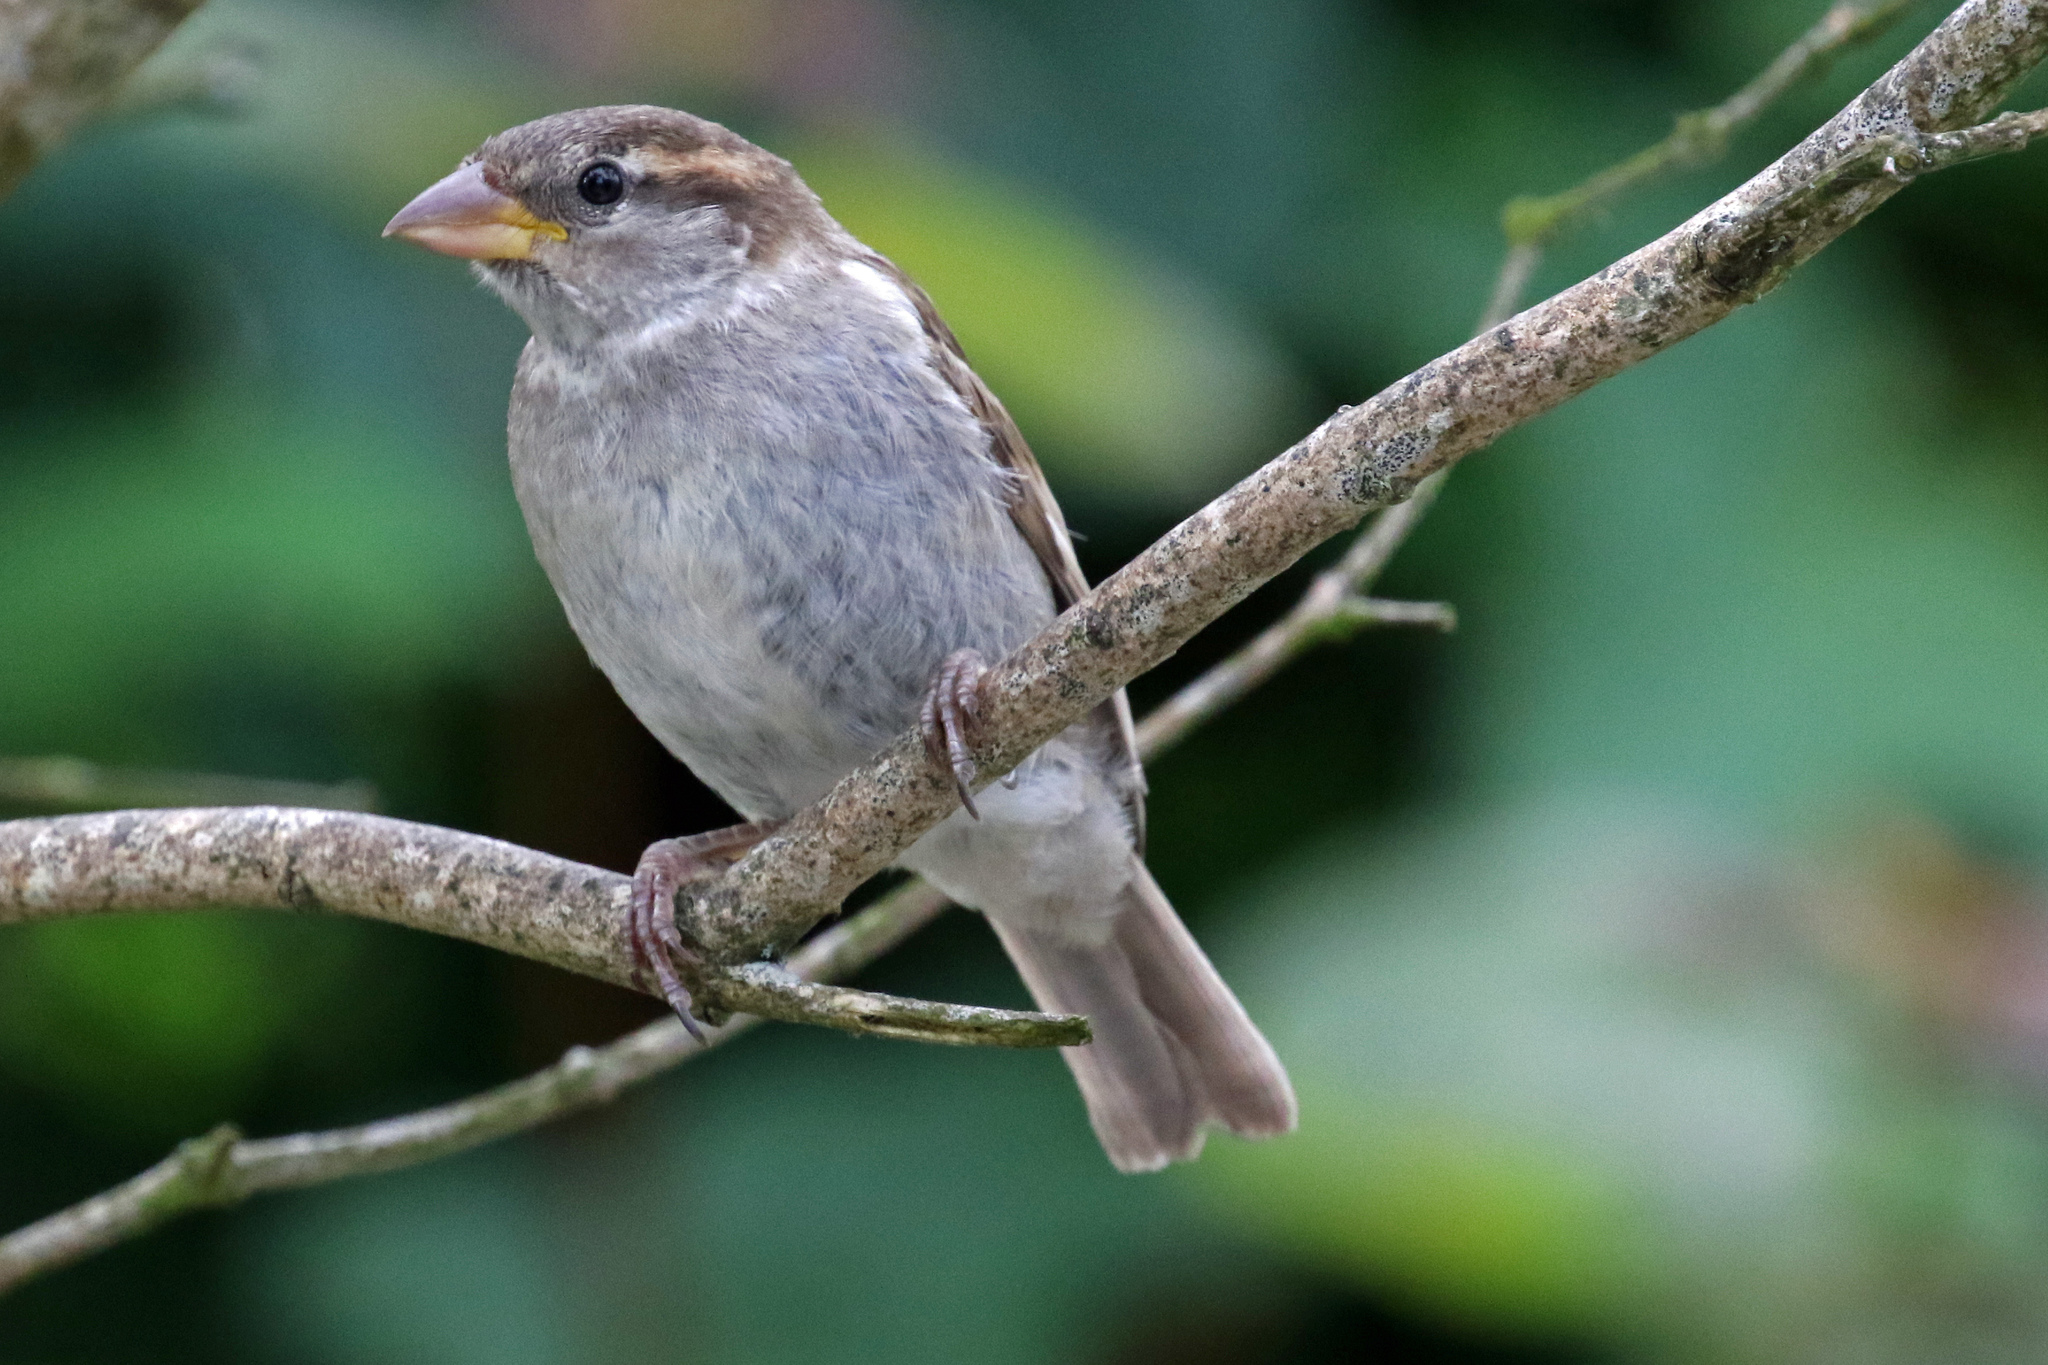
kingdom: Animalia
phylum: Chordata
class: Aves
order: Passeriformes
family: Passeridae
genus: Passer
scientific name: Passer domesticus
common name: House sparrow
